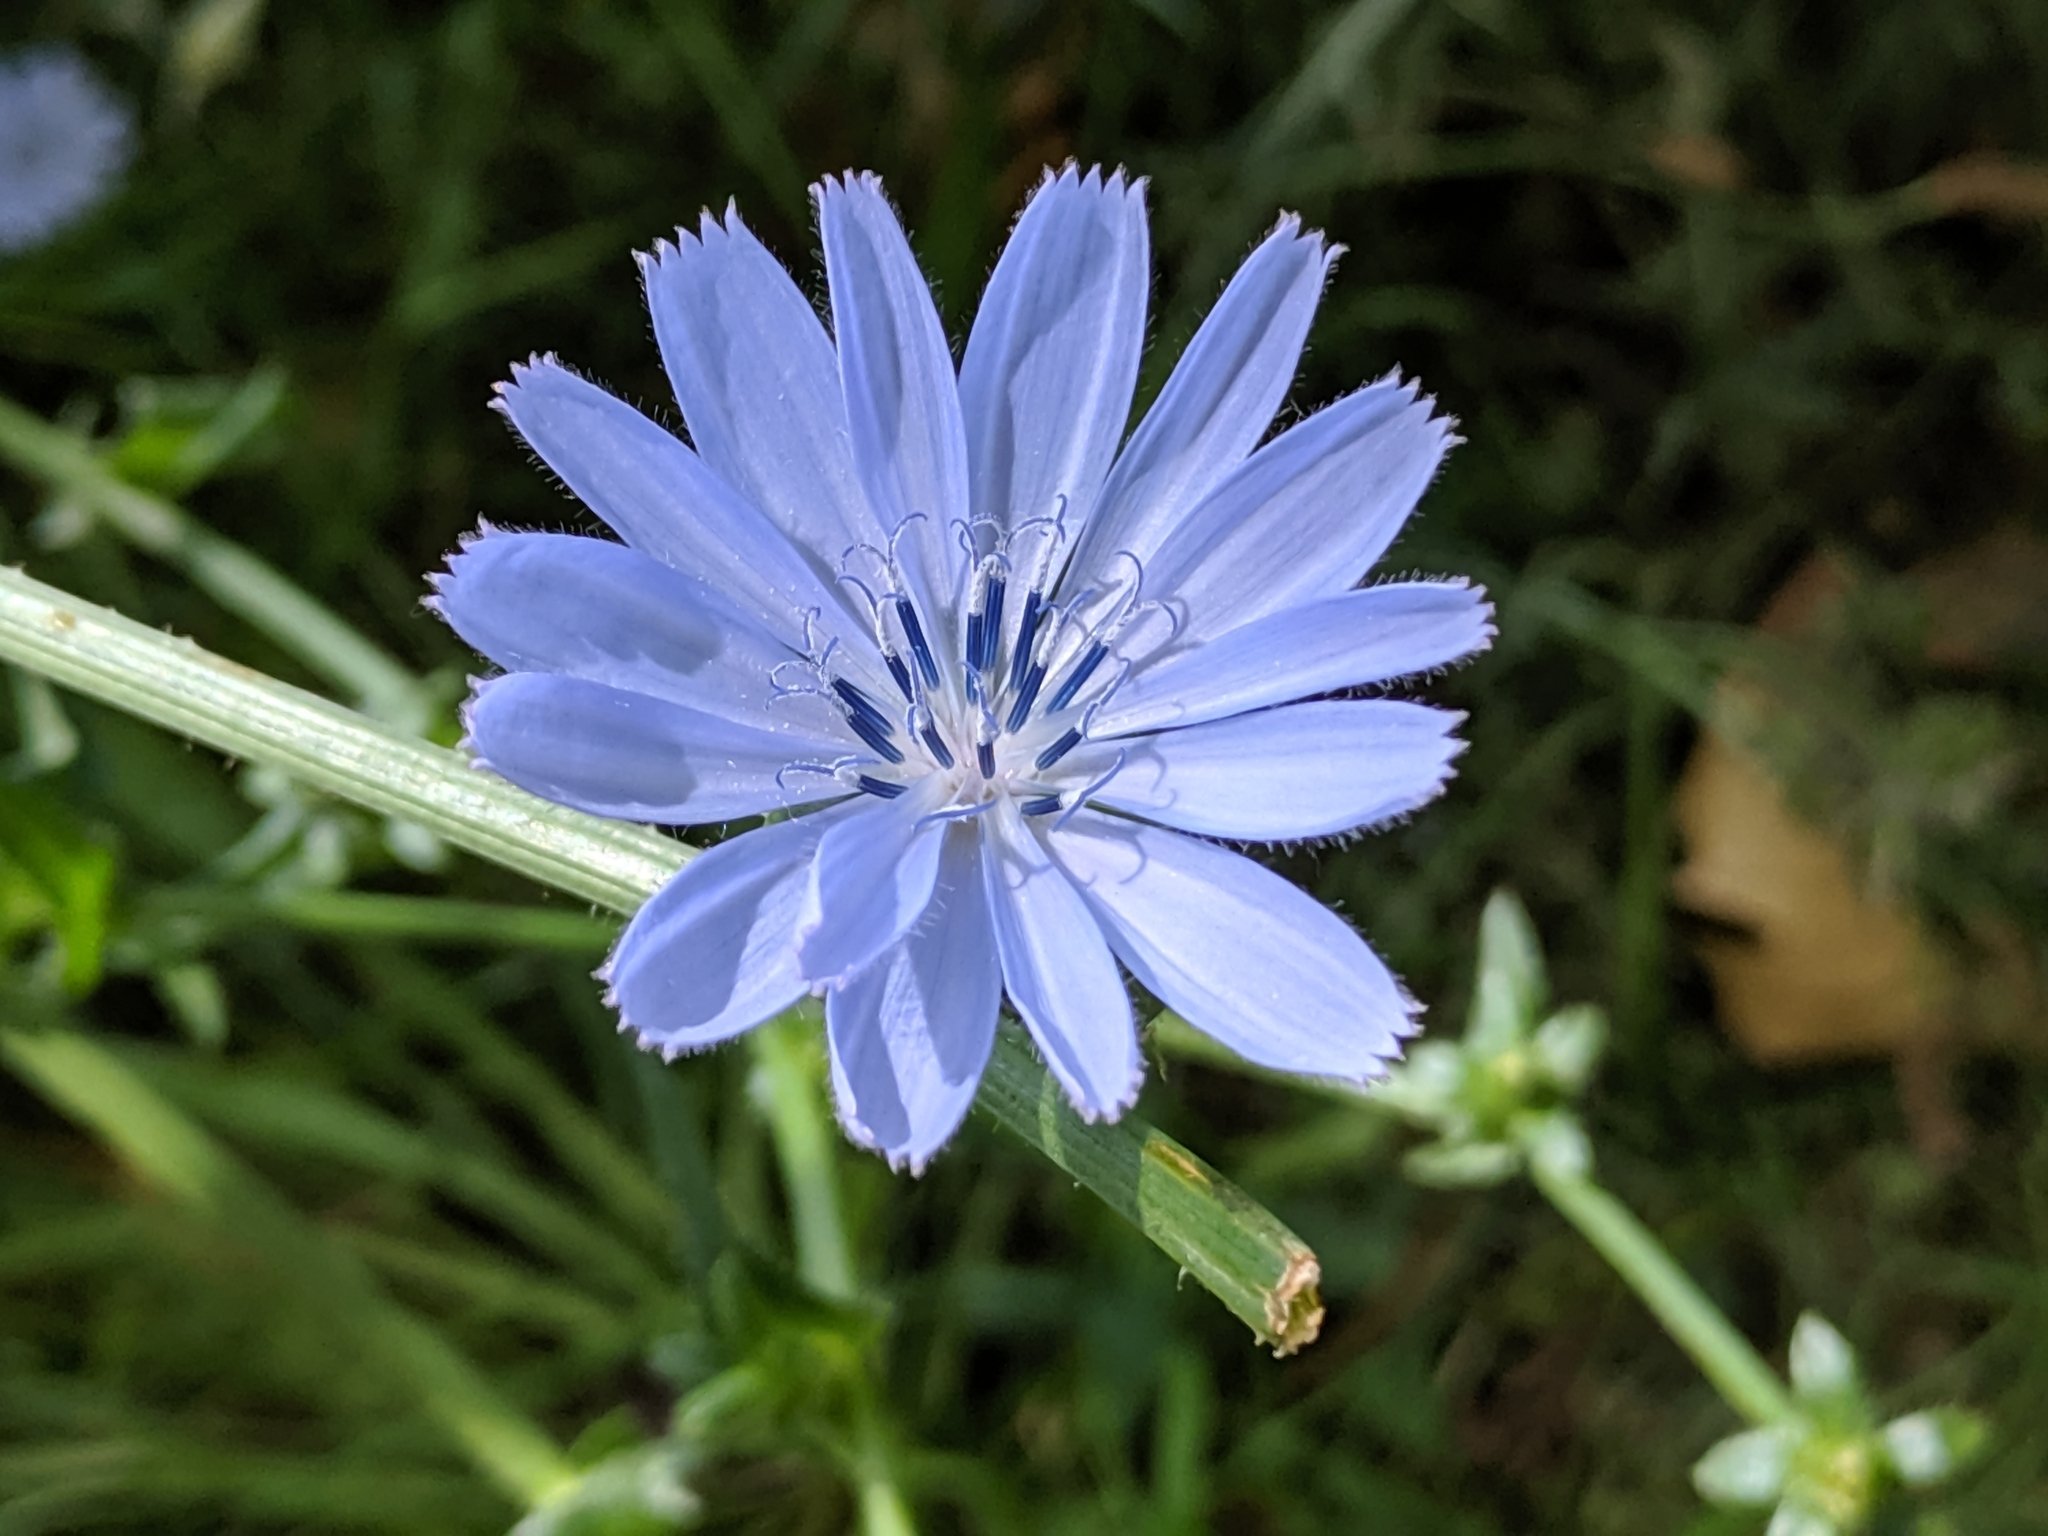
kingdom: Plantae
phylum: Tracheophyta
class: Magnoliopsida
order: Asterales
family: Asteraceae
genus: Cichorium
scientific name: Cichorium intybus
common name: Chicory
